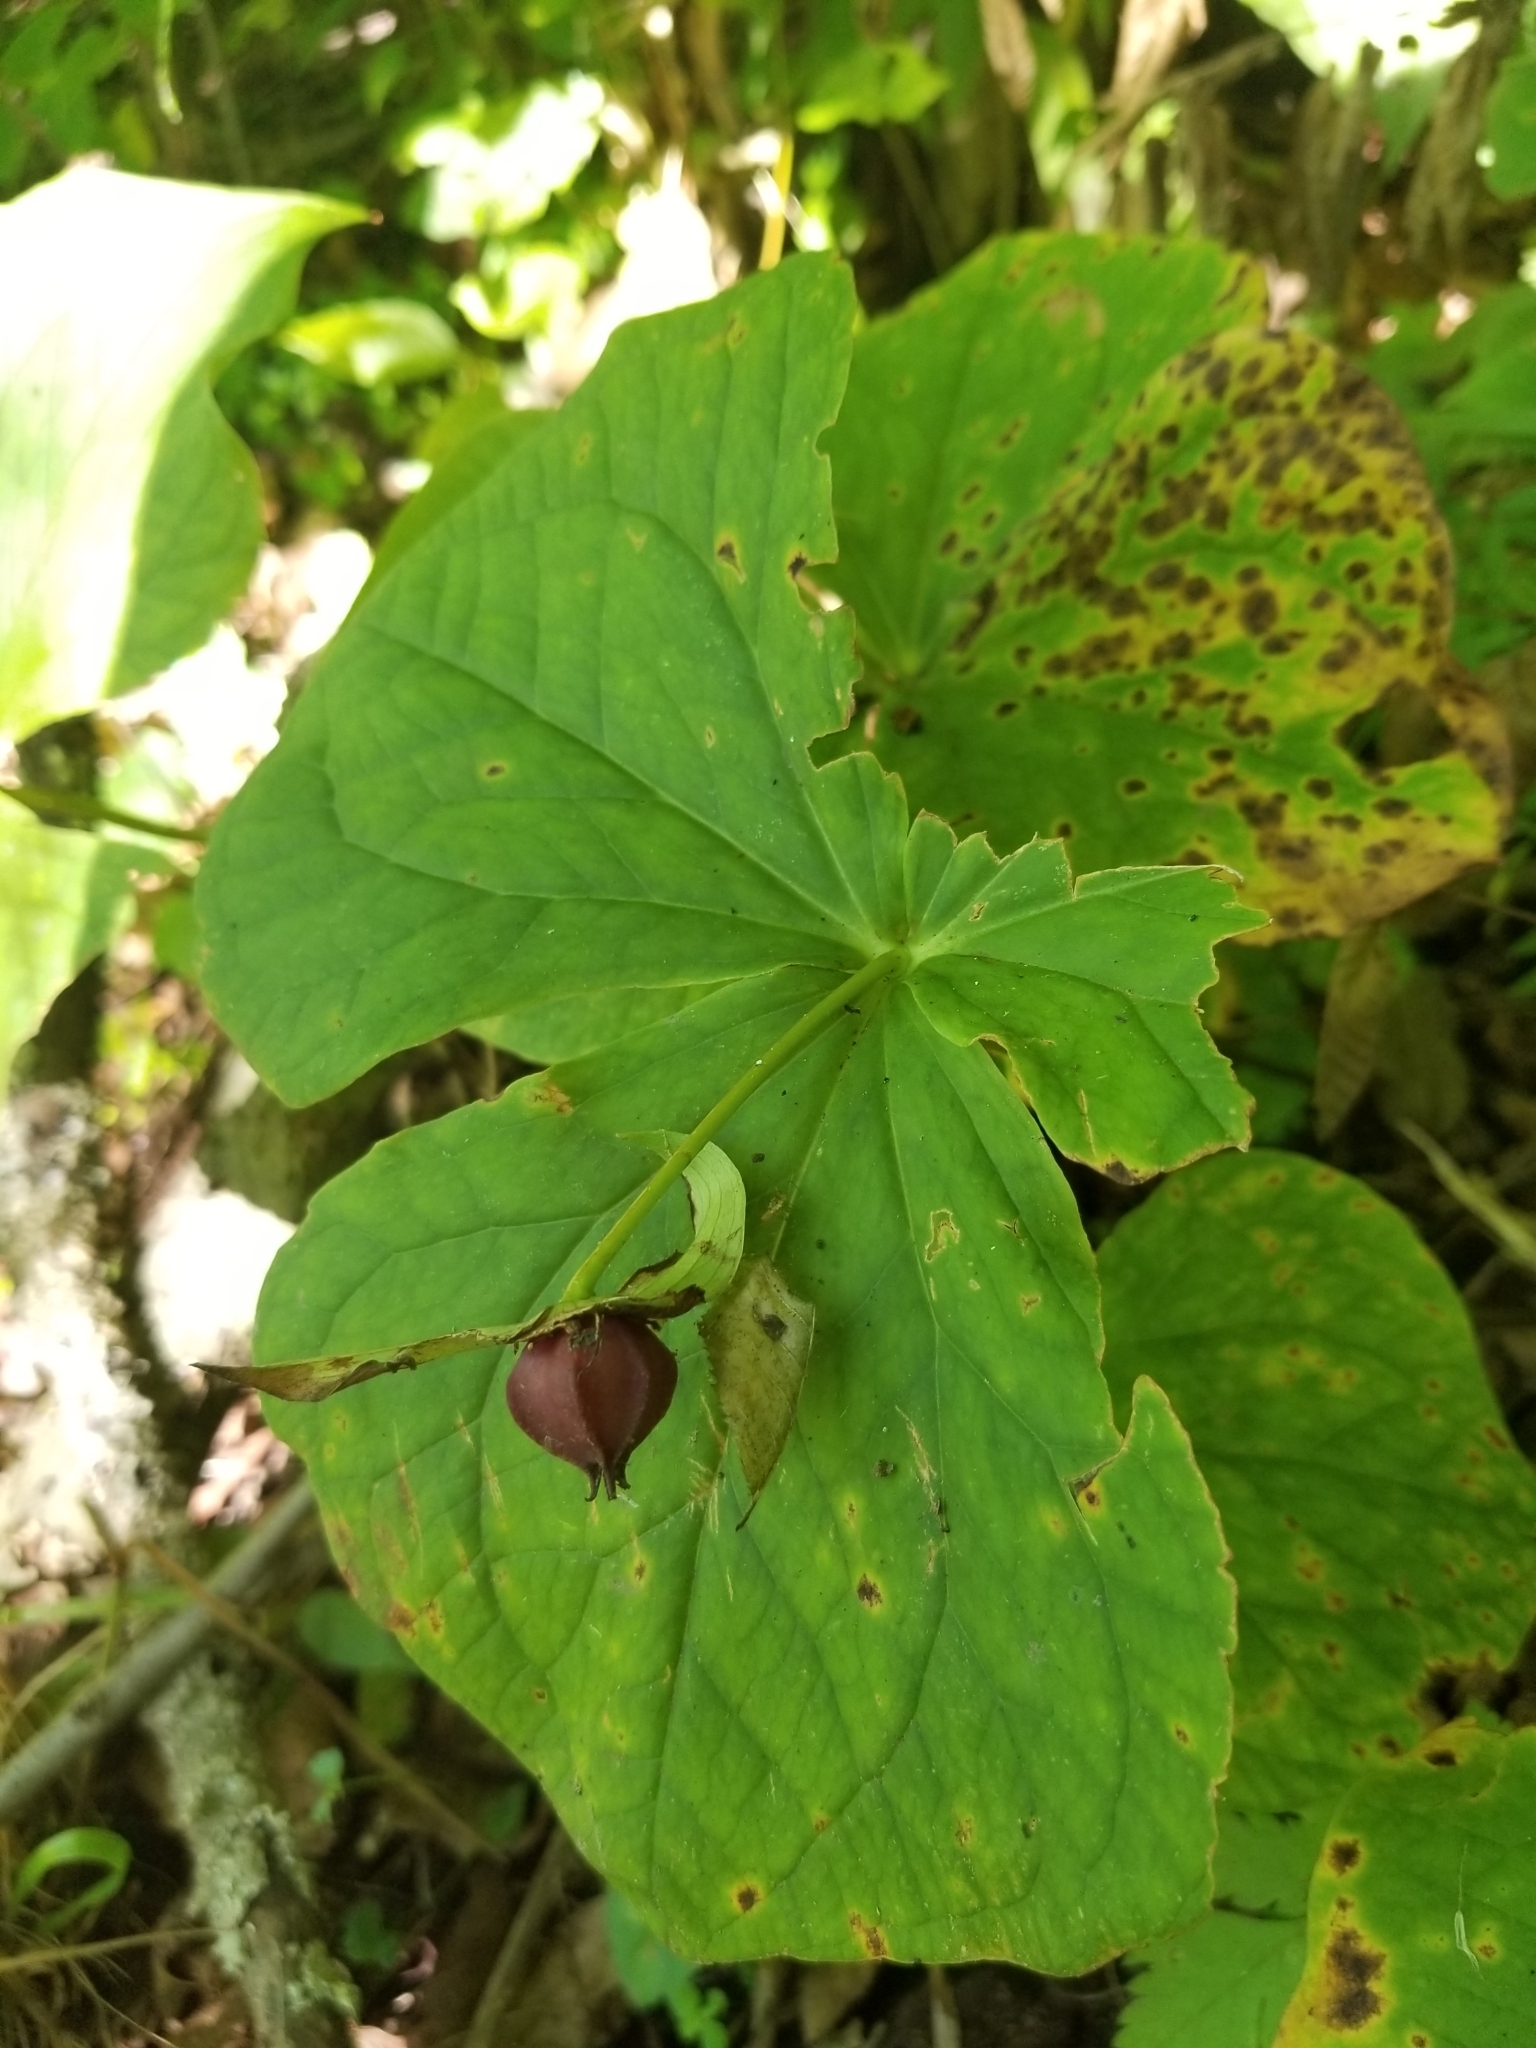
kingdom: Plantae
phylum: Tracheophyta
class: Liliopsida
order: Liliales
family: Melanthiaceae
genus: Trillium
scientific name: Trillium erectum
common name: Purple trillium
